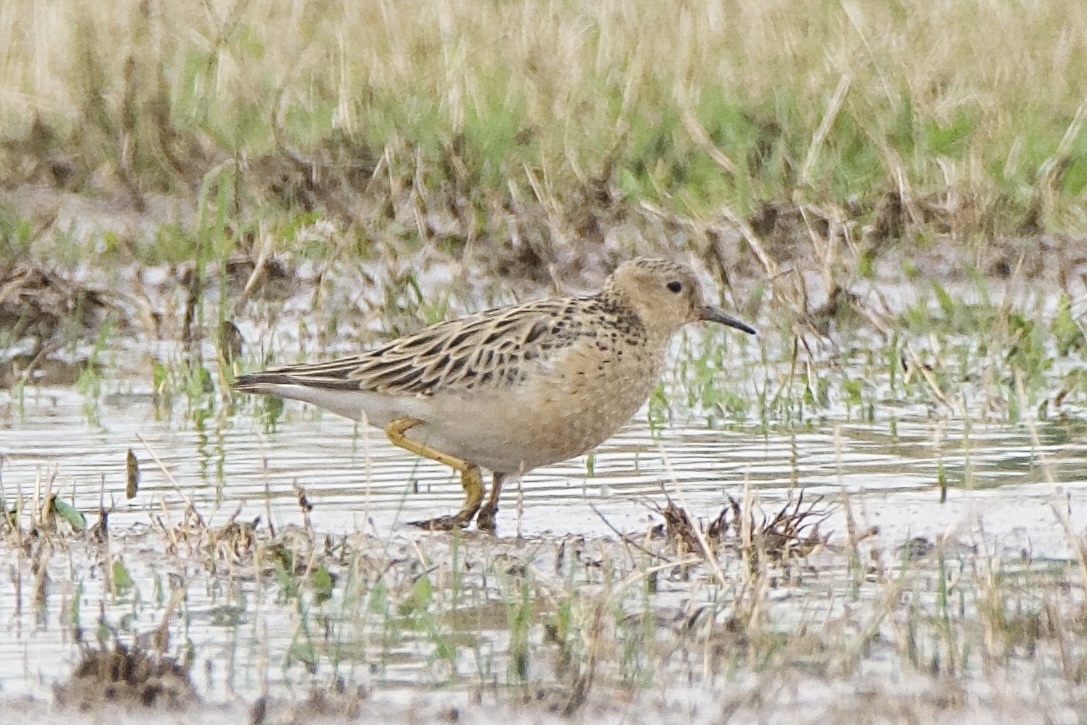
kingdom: Animalia
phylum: Chordata
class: Aves
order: Charadriiformes
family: Scolopacidae
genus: Calidris
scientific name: Calidris subruficollis
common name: Buff-breasted sandpiper
